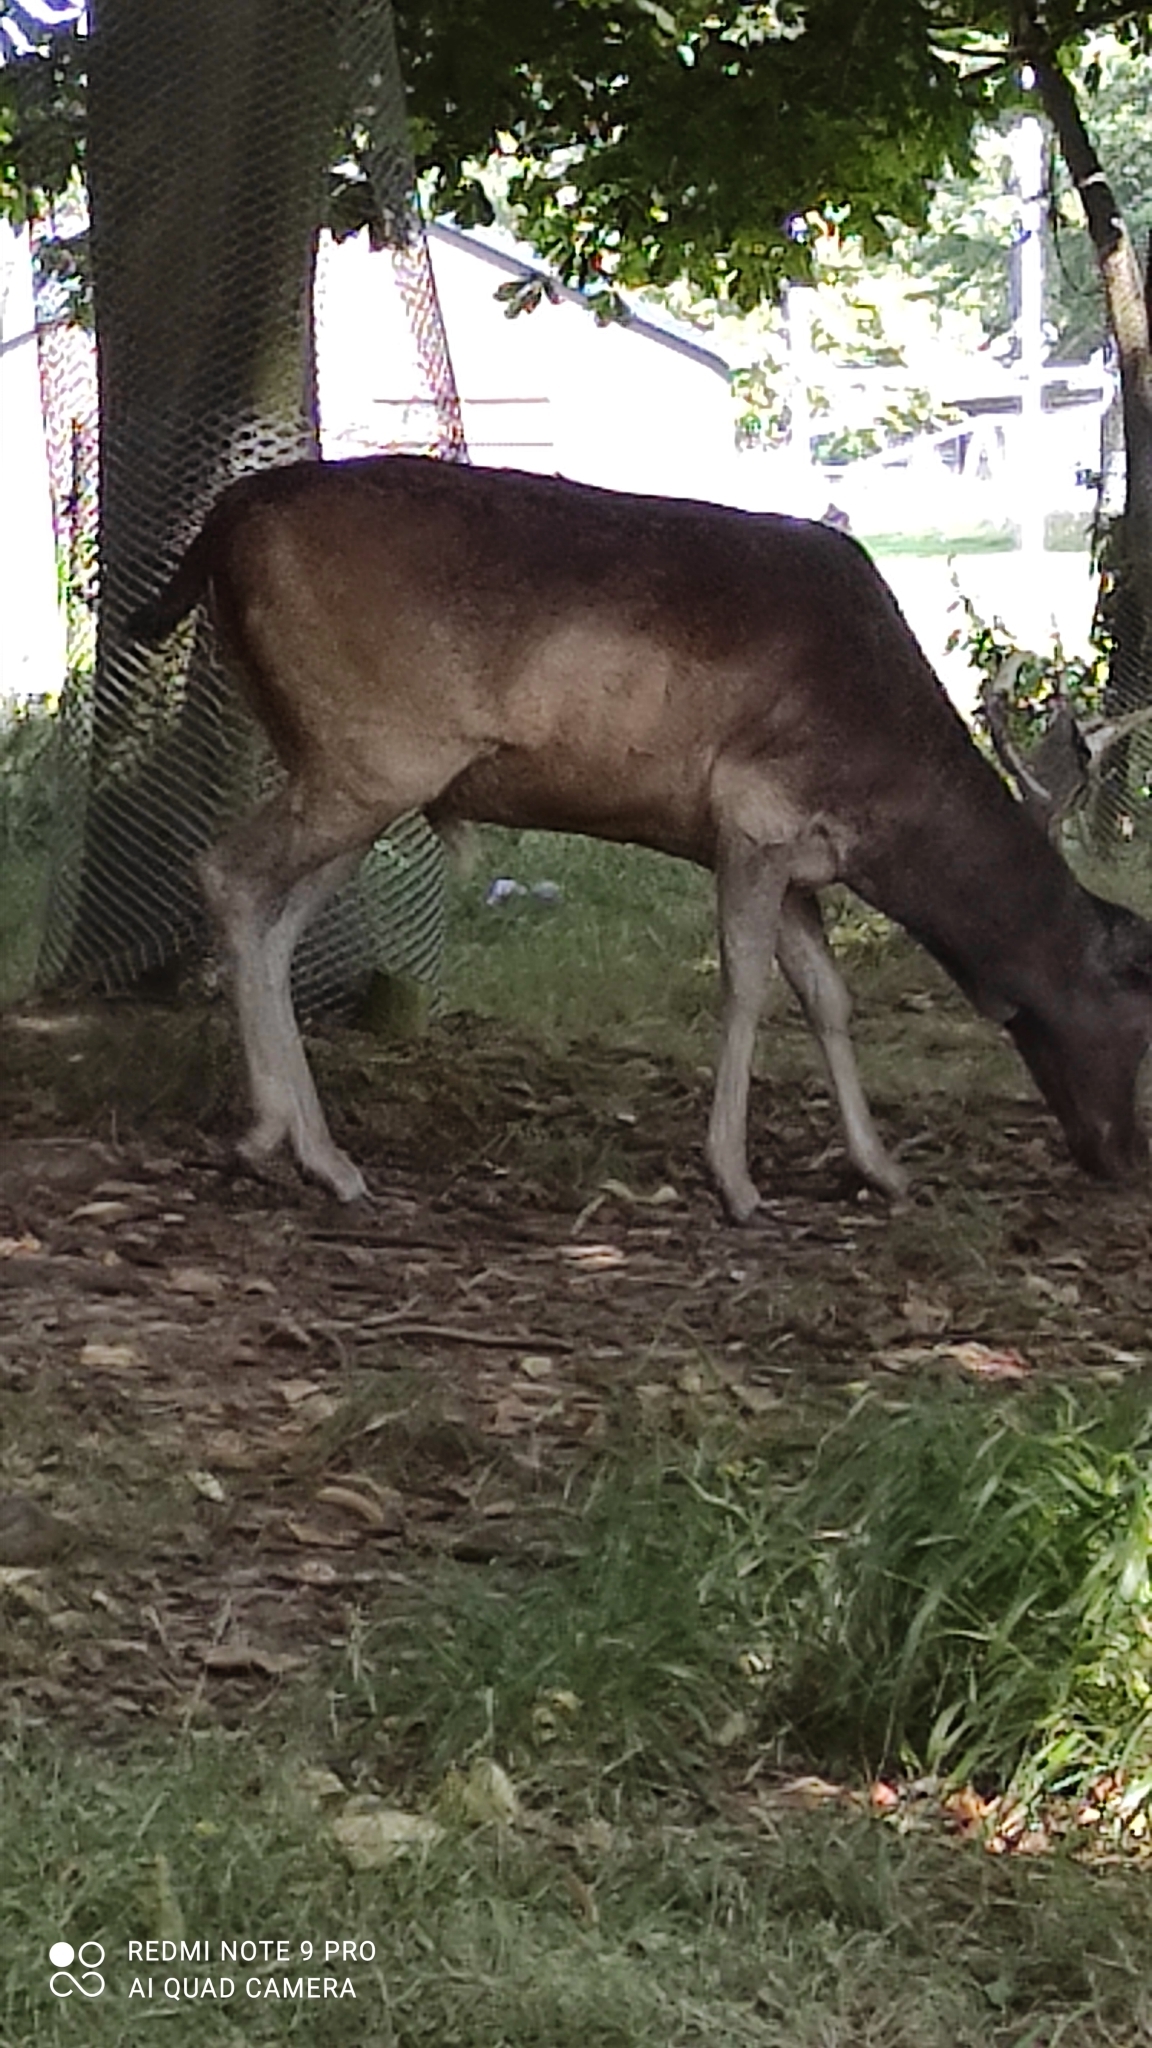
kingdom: Animalia
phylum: Chordata
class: Mammalia
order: Artiodactyla
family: Cervidae
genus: Cervus
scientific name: Cervus nippon
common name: Sika deer
